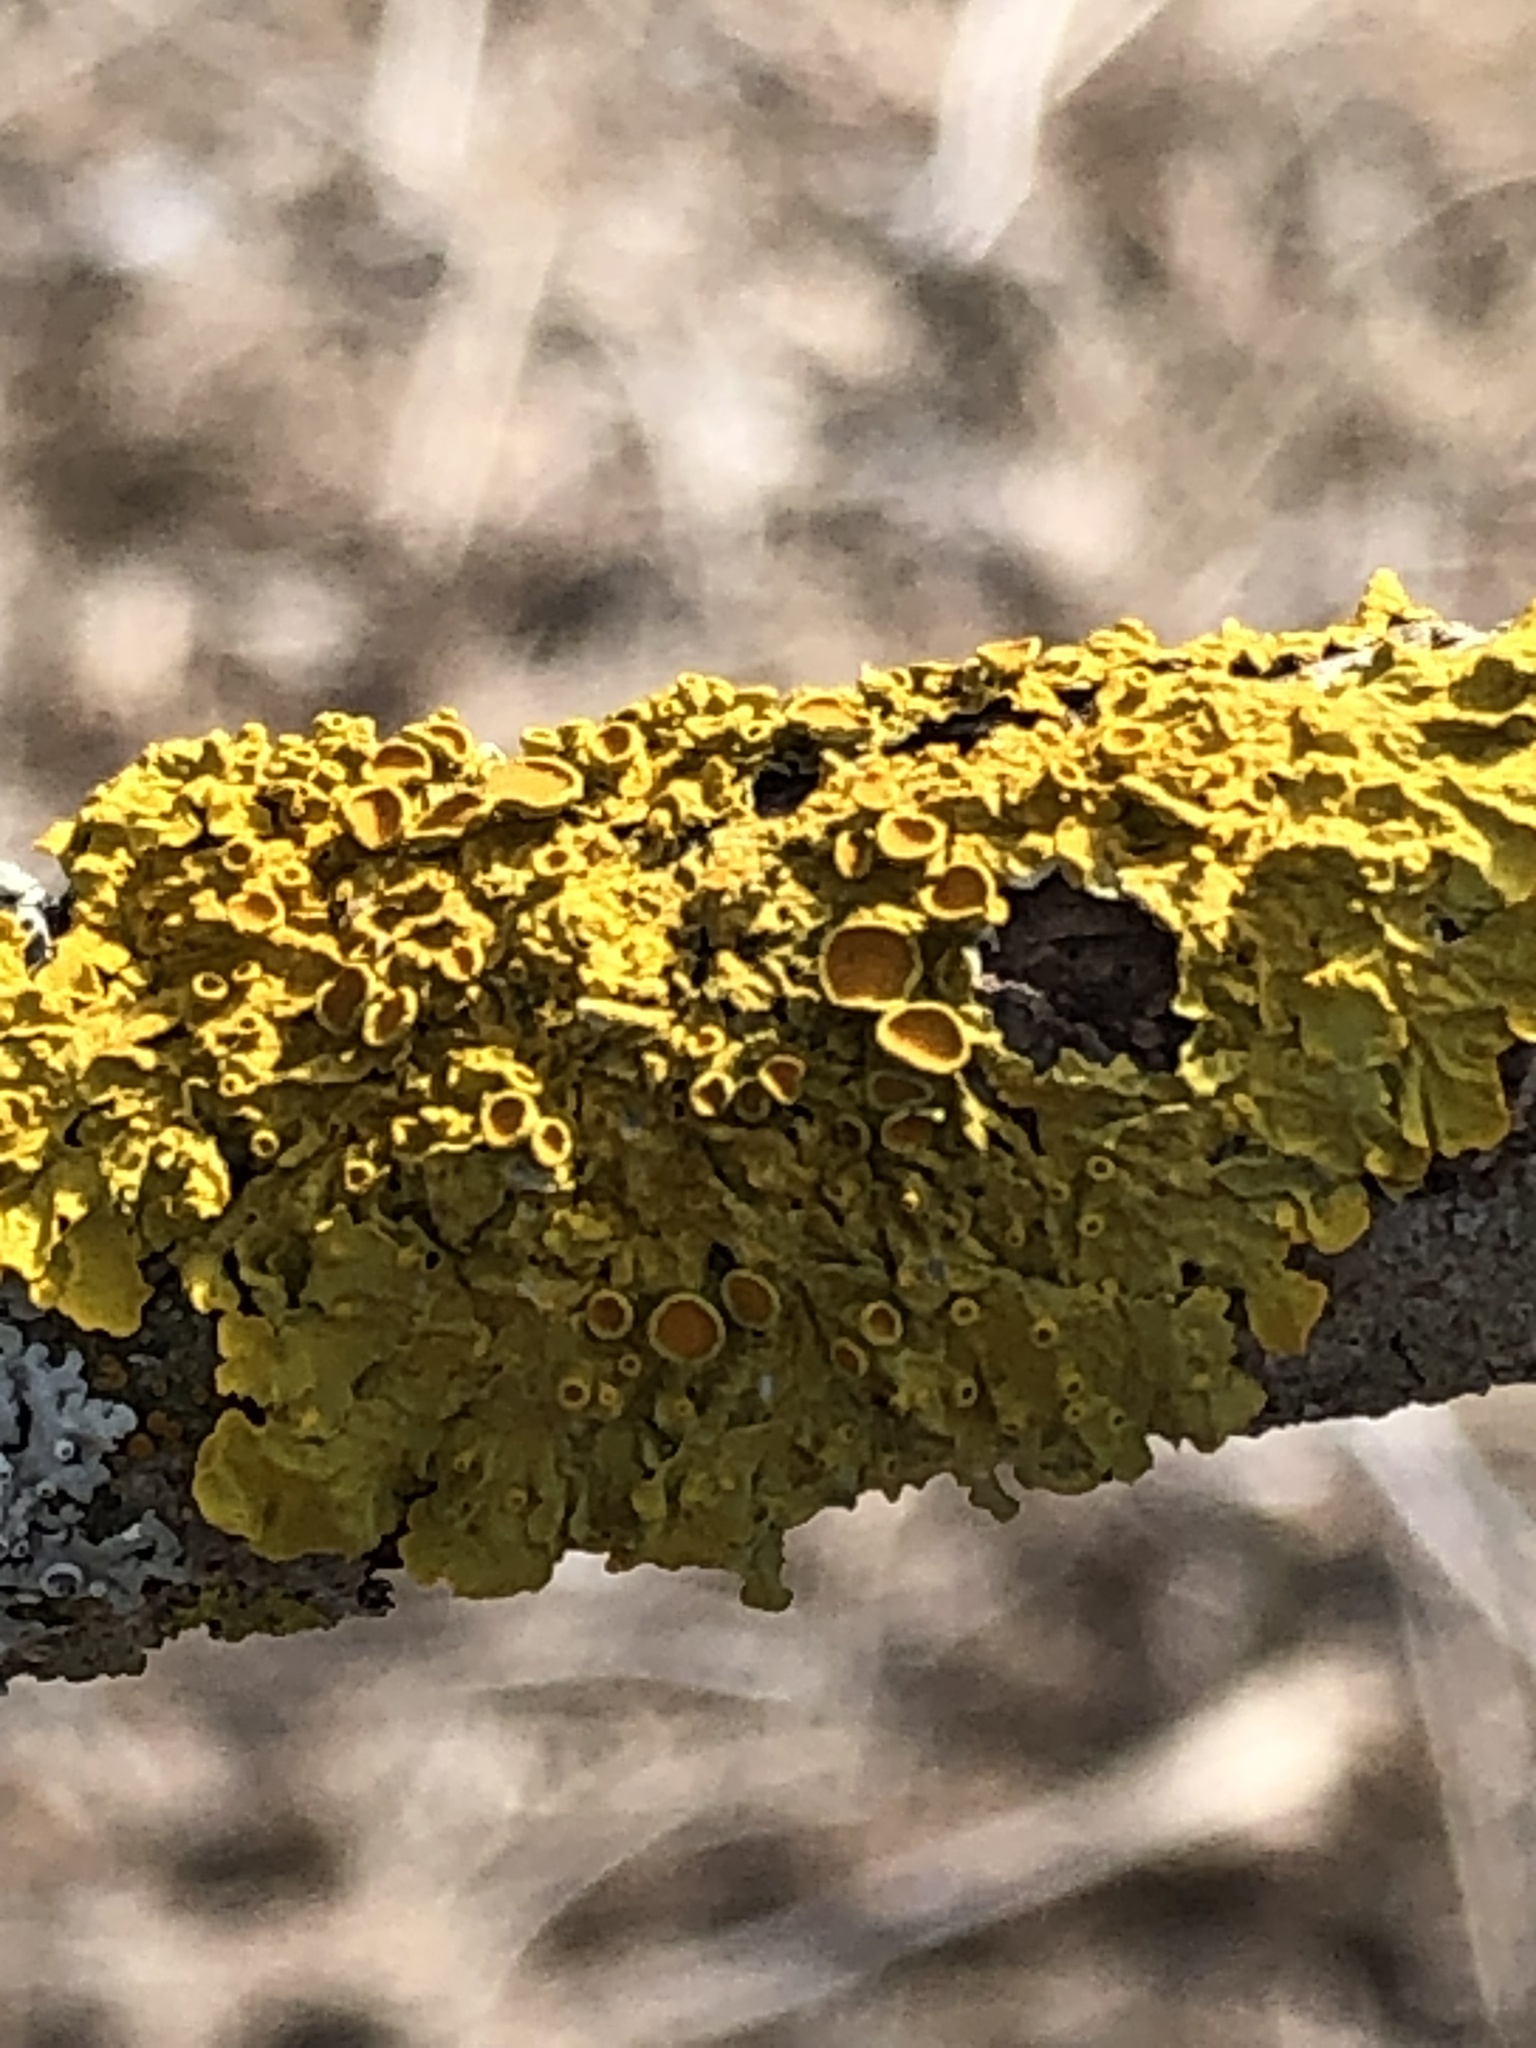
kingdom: Fungi
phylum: Ascomycota
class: Lecanoromycetes
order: Teloschistales
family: Teloschistaceae
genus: Xanthoria
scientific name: Xanthoria parietina
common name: Common orange lichen
